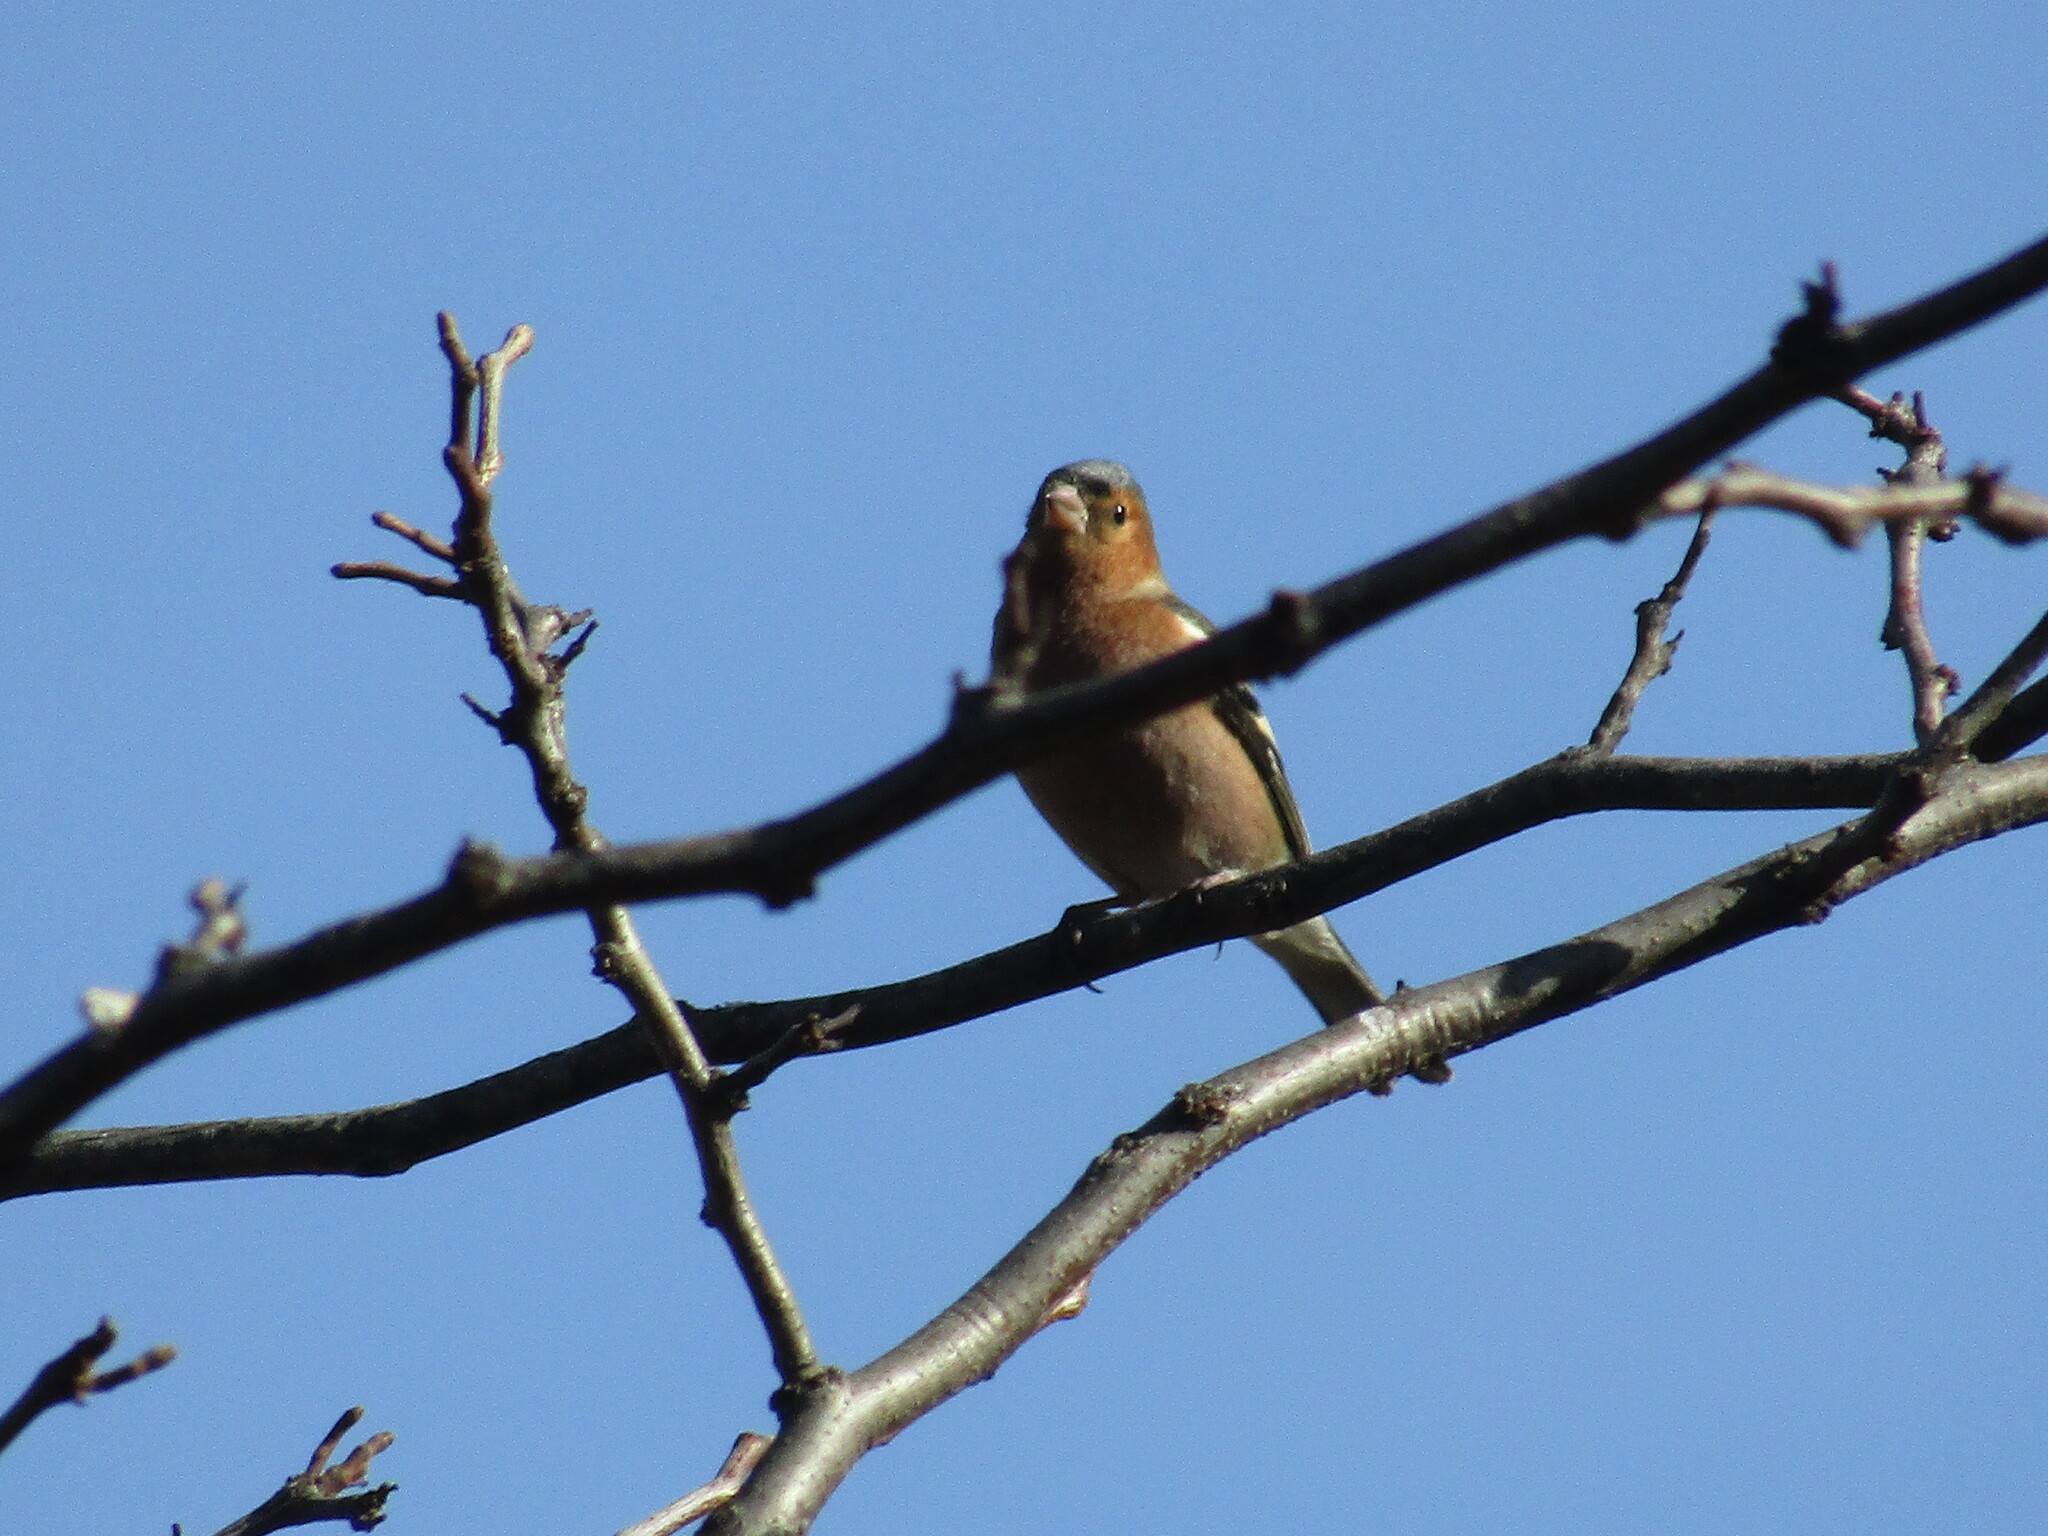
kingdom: Animalia
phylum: Chordata
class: Aves
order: Passeriformes
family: Fringillidae
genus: Fringilla
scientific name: Fringilla coelebs
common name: Common chaffinch
